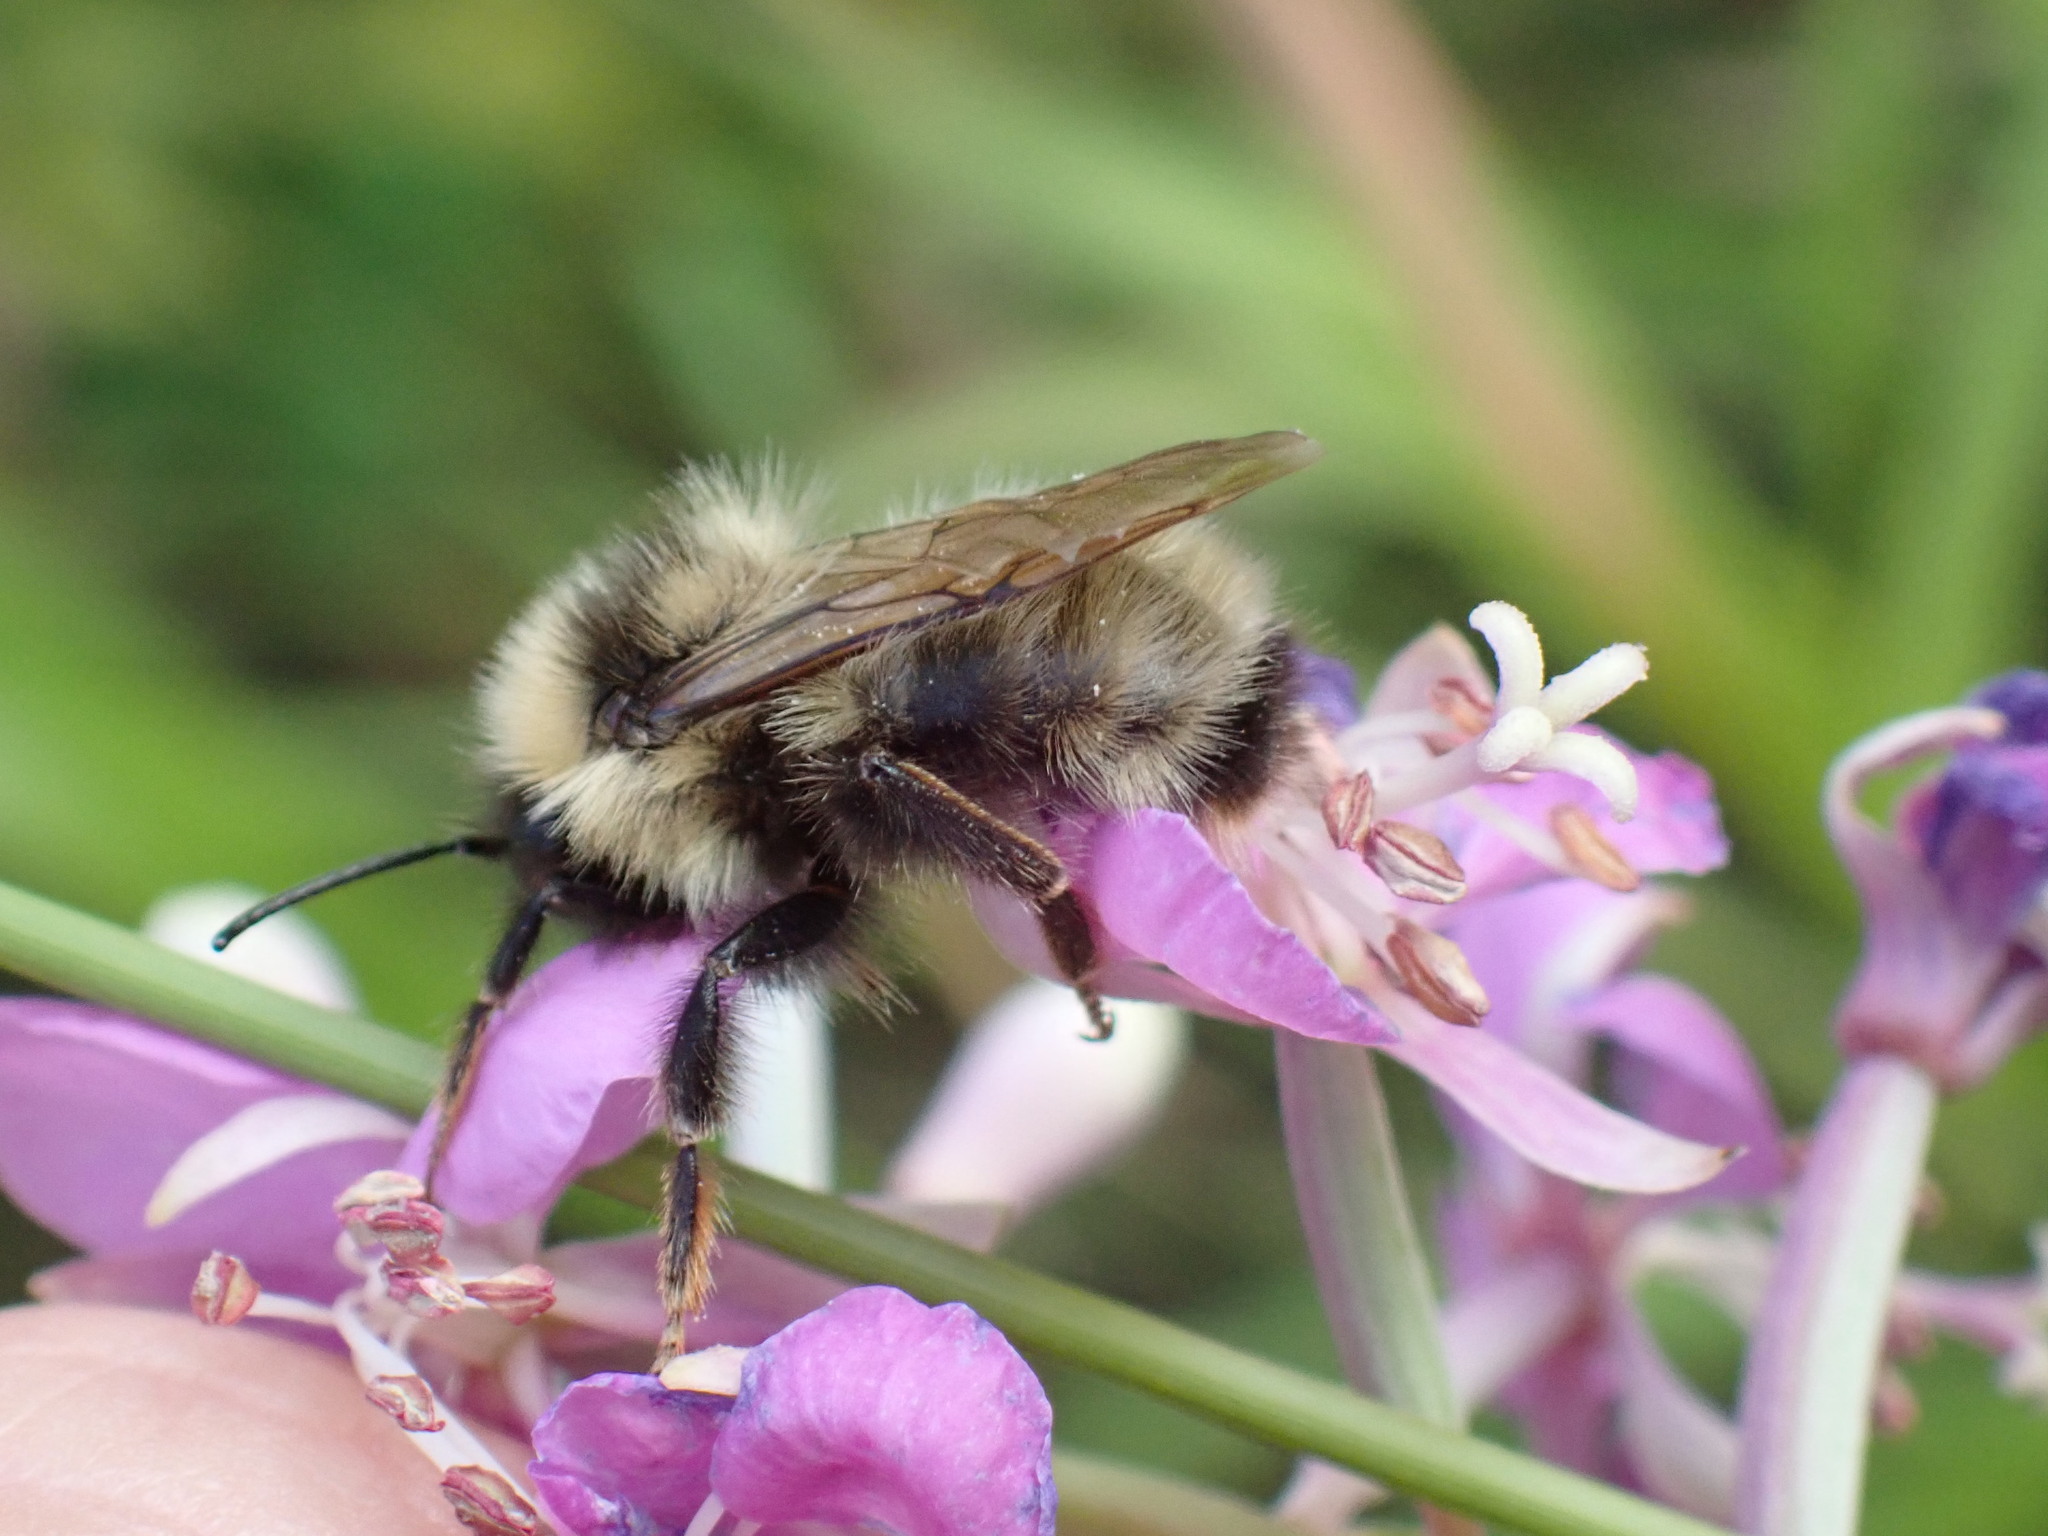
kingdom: Animalia
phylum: Arthropoda
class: Insecta
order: Hymenoptera
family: Apidae
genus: Bombus
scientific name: Bombus flavidus
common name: Fernald cuckoo bumble bee
